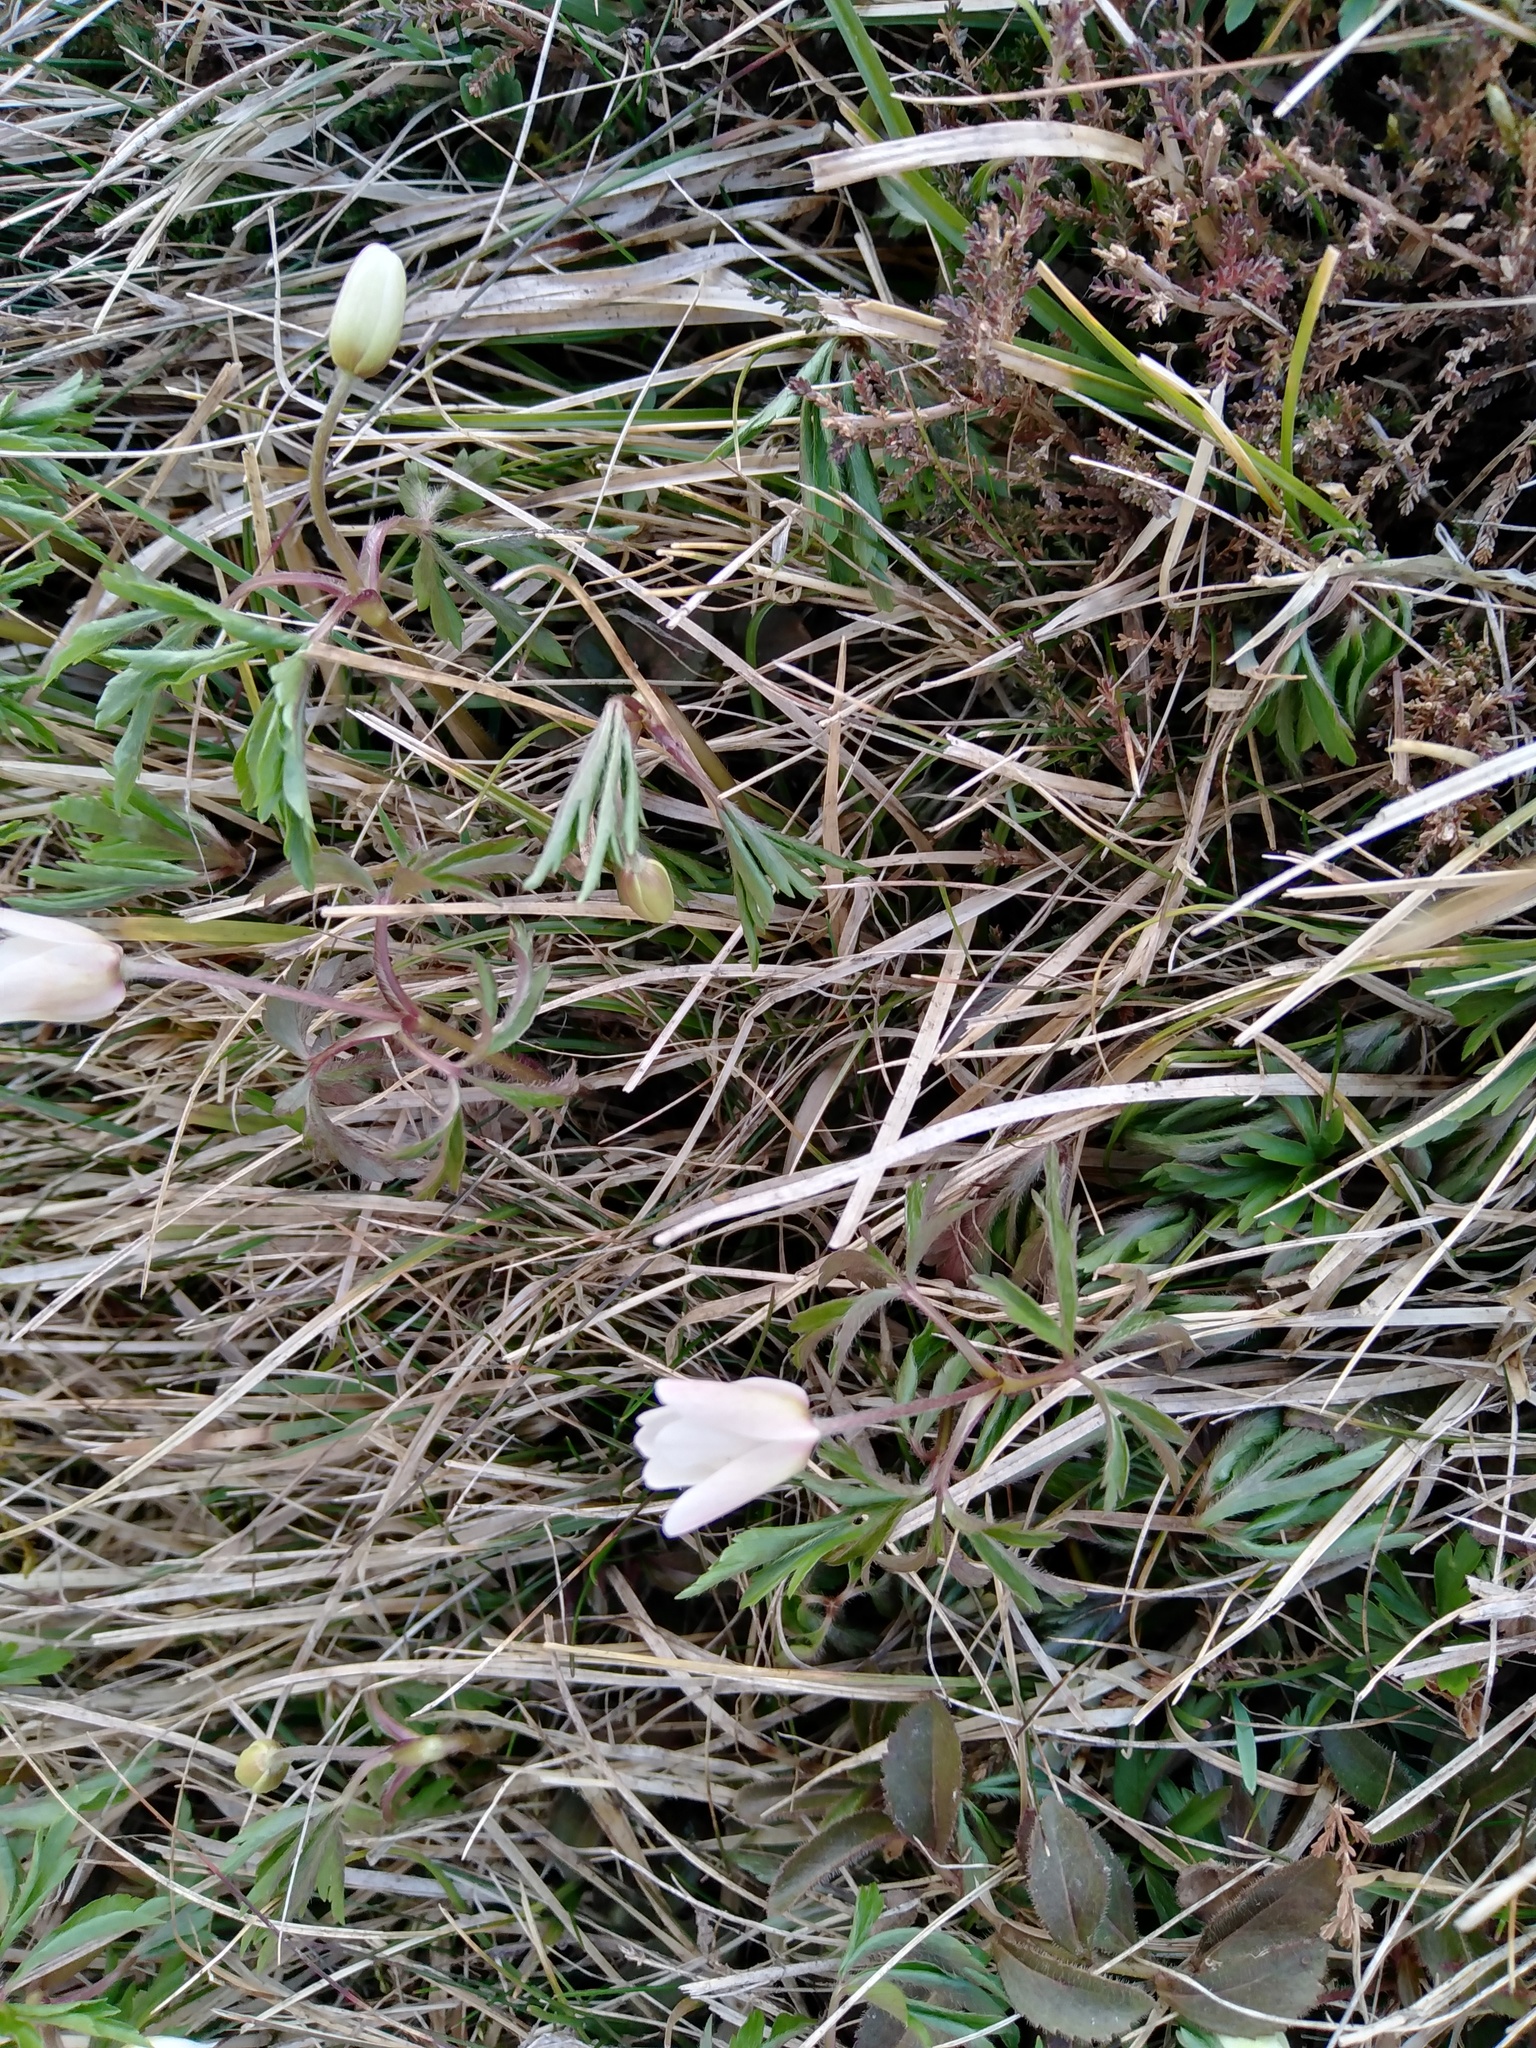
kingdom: Plantae
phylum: Tracheophyta
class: Magnoliopsida
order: Ranunculales
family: Ranunculaceae
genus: Anemone
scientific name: Anemone nemorosa
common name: Wood anemone
